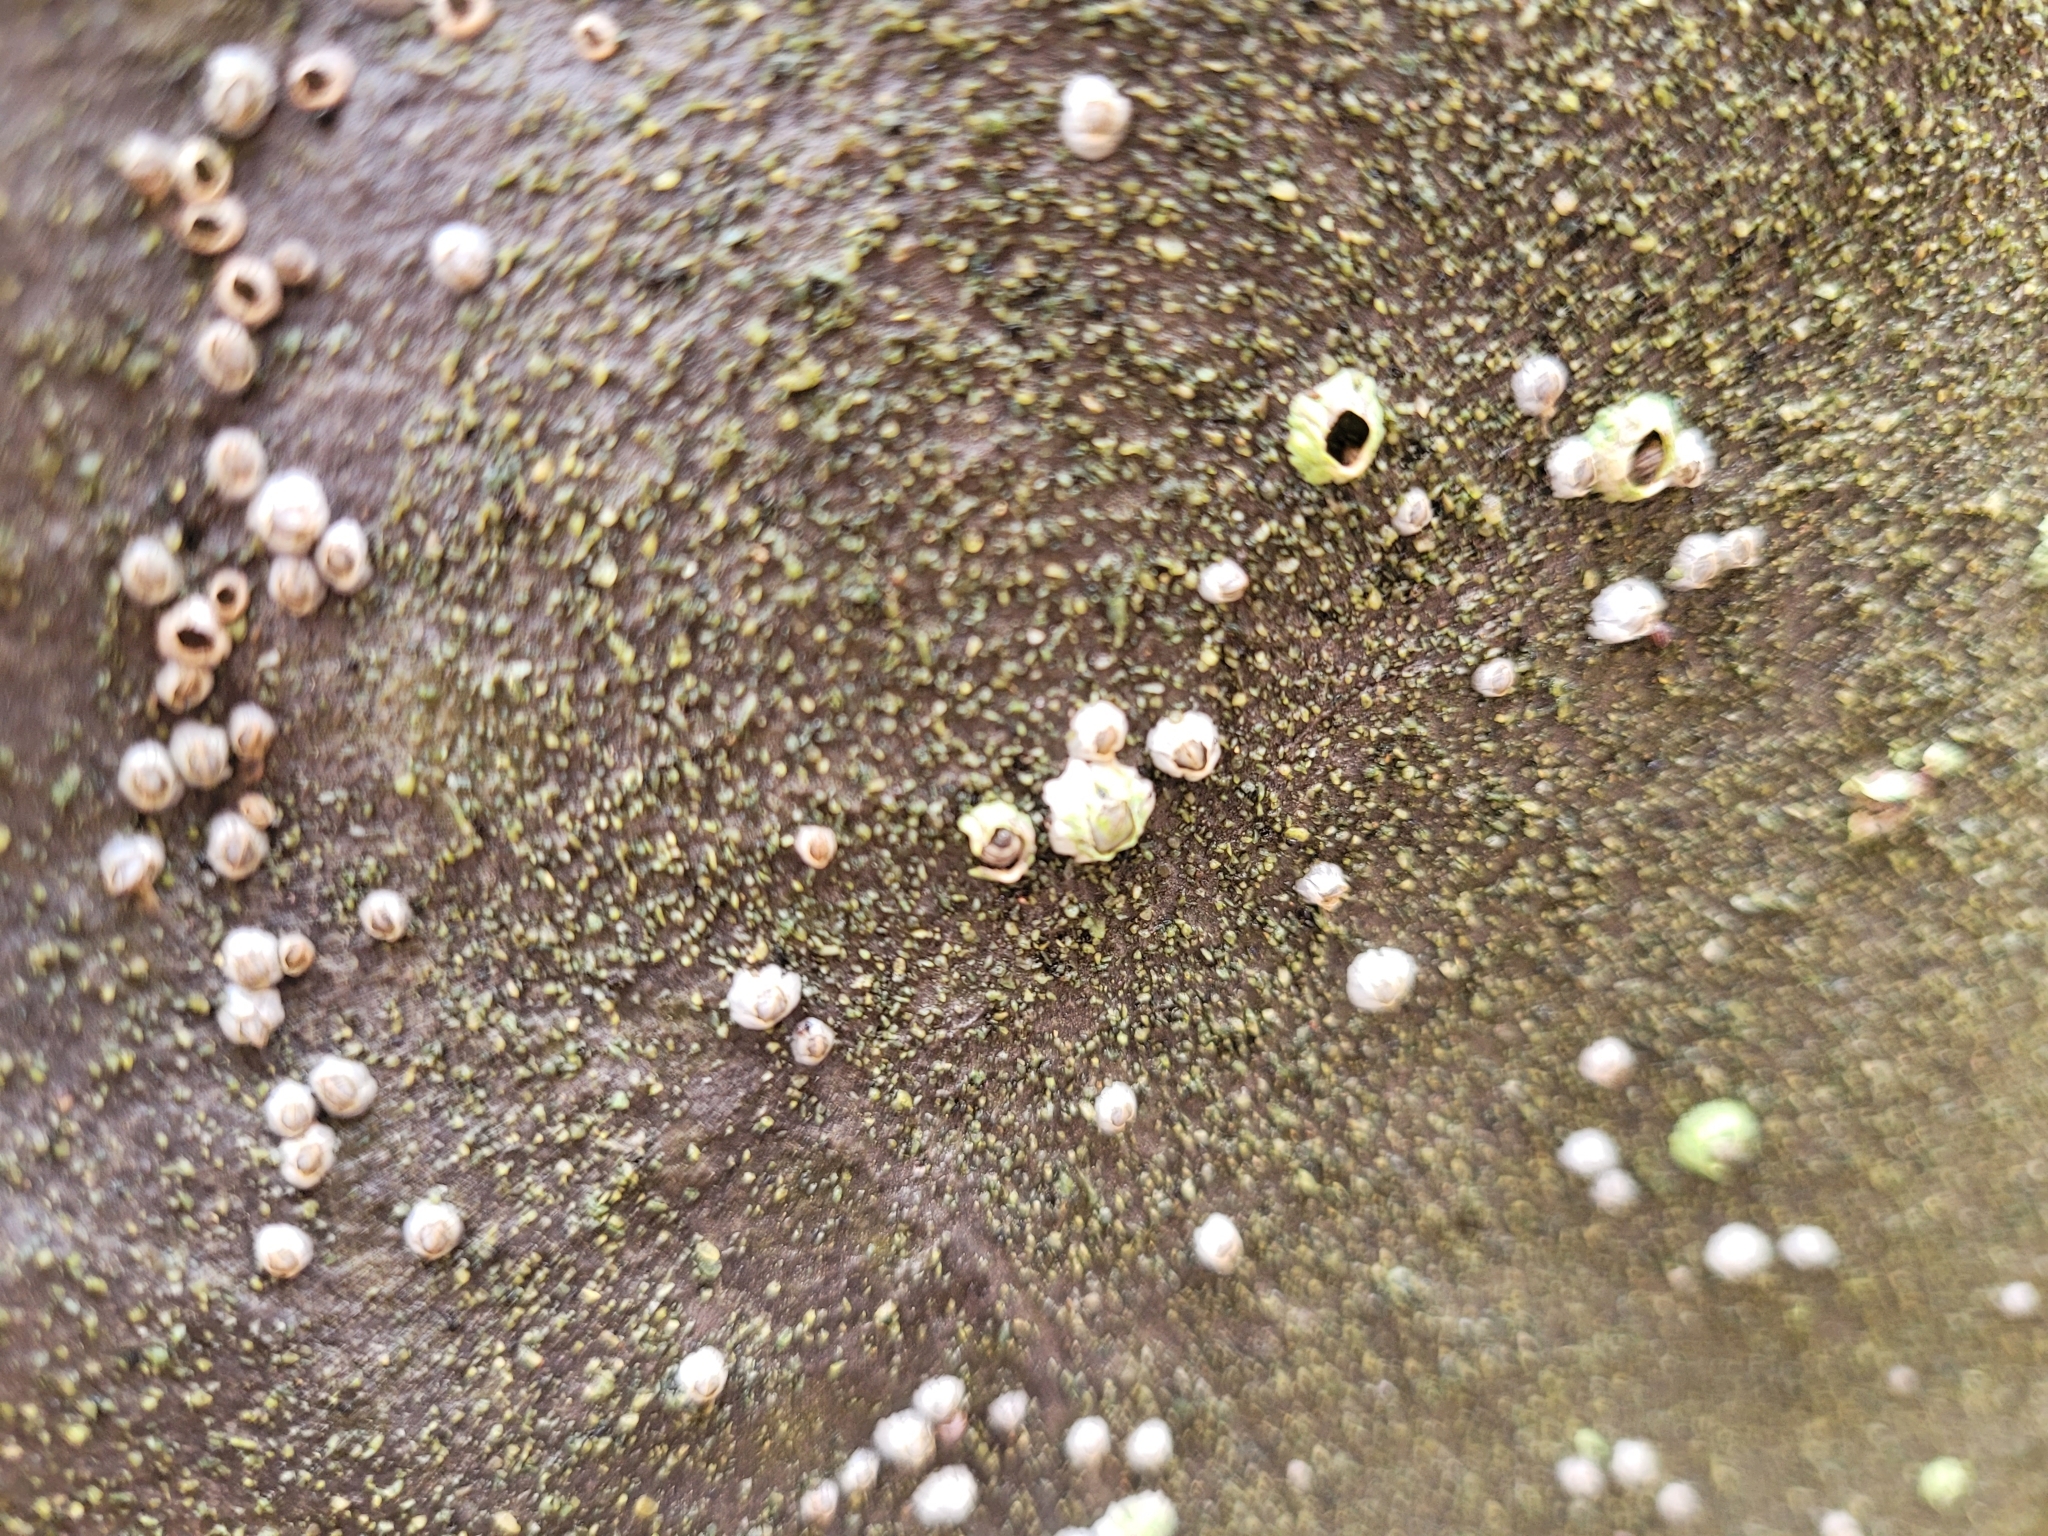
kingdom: Animalia
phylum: Arthropoda
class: Maxillopoda
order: Sessilia
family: Archaeobalanidae
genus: Semibalanus
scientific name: Semibalanus balanoides
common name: Acorn barnacle
